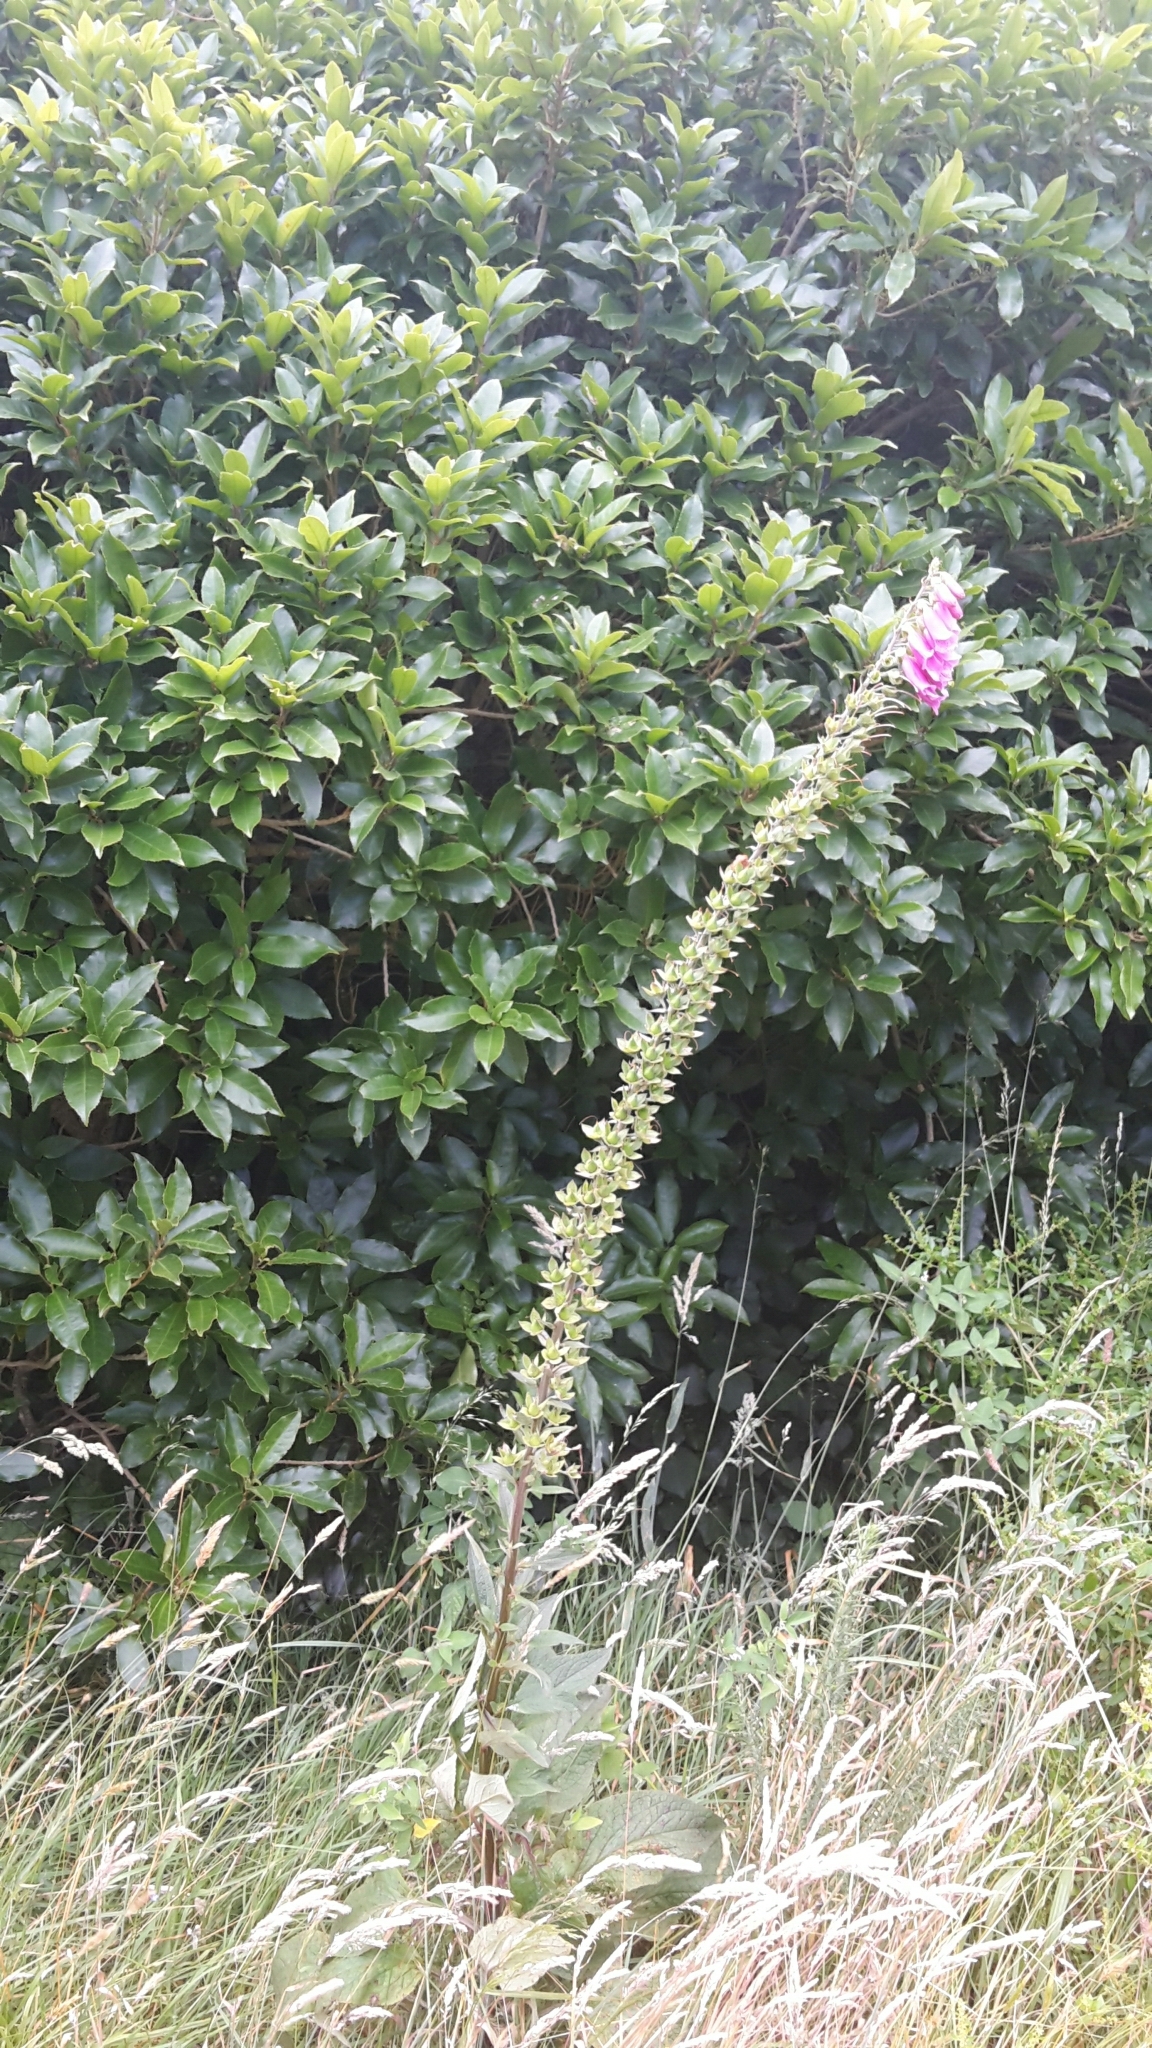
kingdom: Plantae
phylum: Tracheophyta
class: Magnoliopsida
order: Lamiales
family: Plantaginaceae
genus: Digitalis
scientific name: Digitalis purpurea
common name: Foxglove
